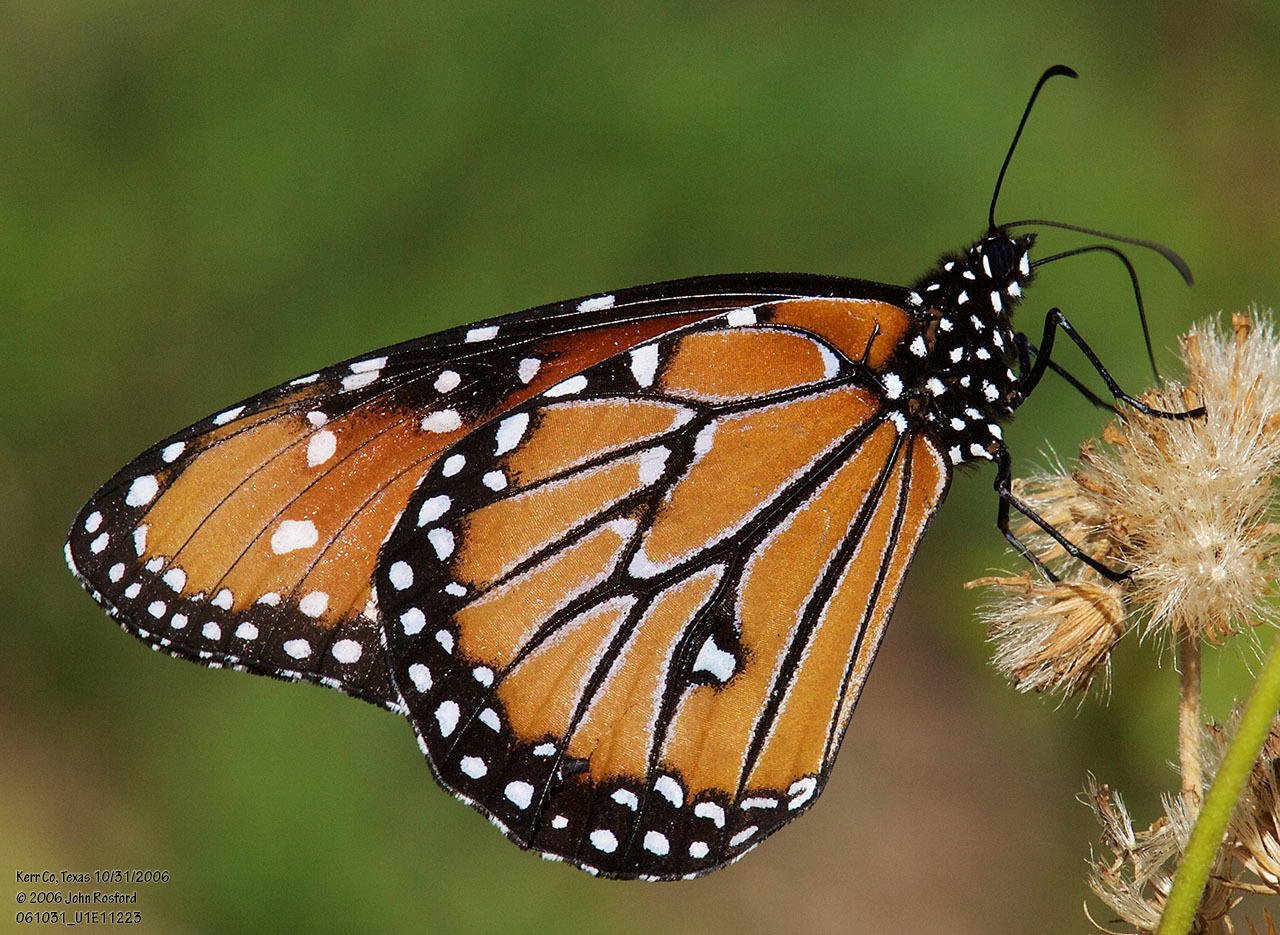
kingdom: Animalia
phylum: Arthropoda
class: Insecta
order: Lepidoptera
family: Nymphalidae
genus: Danaus
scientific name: Danaus gilippus
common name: Queen
